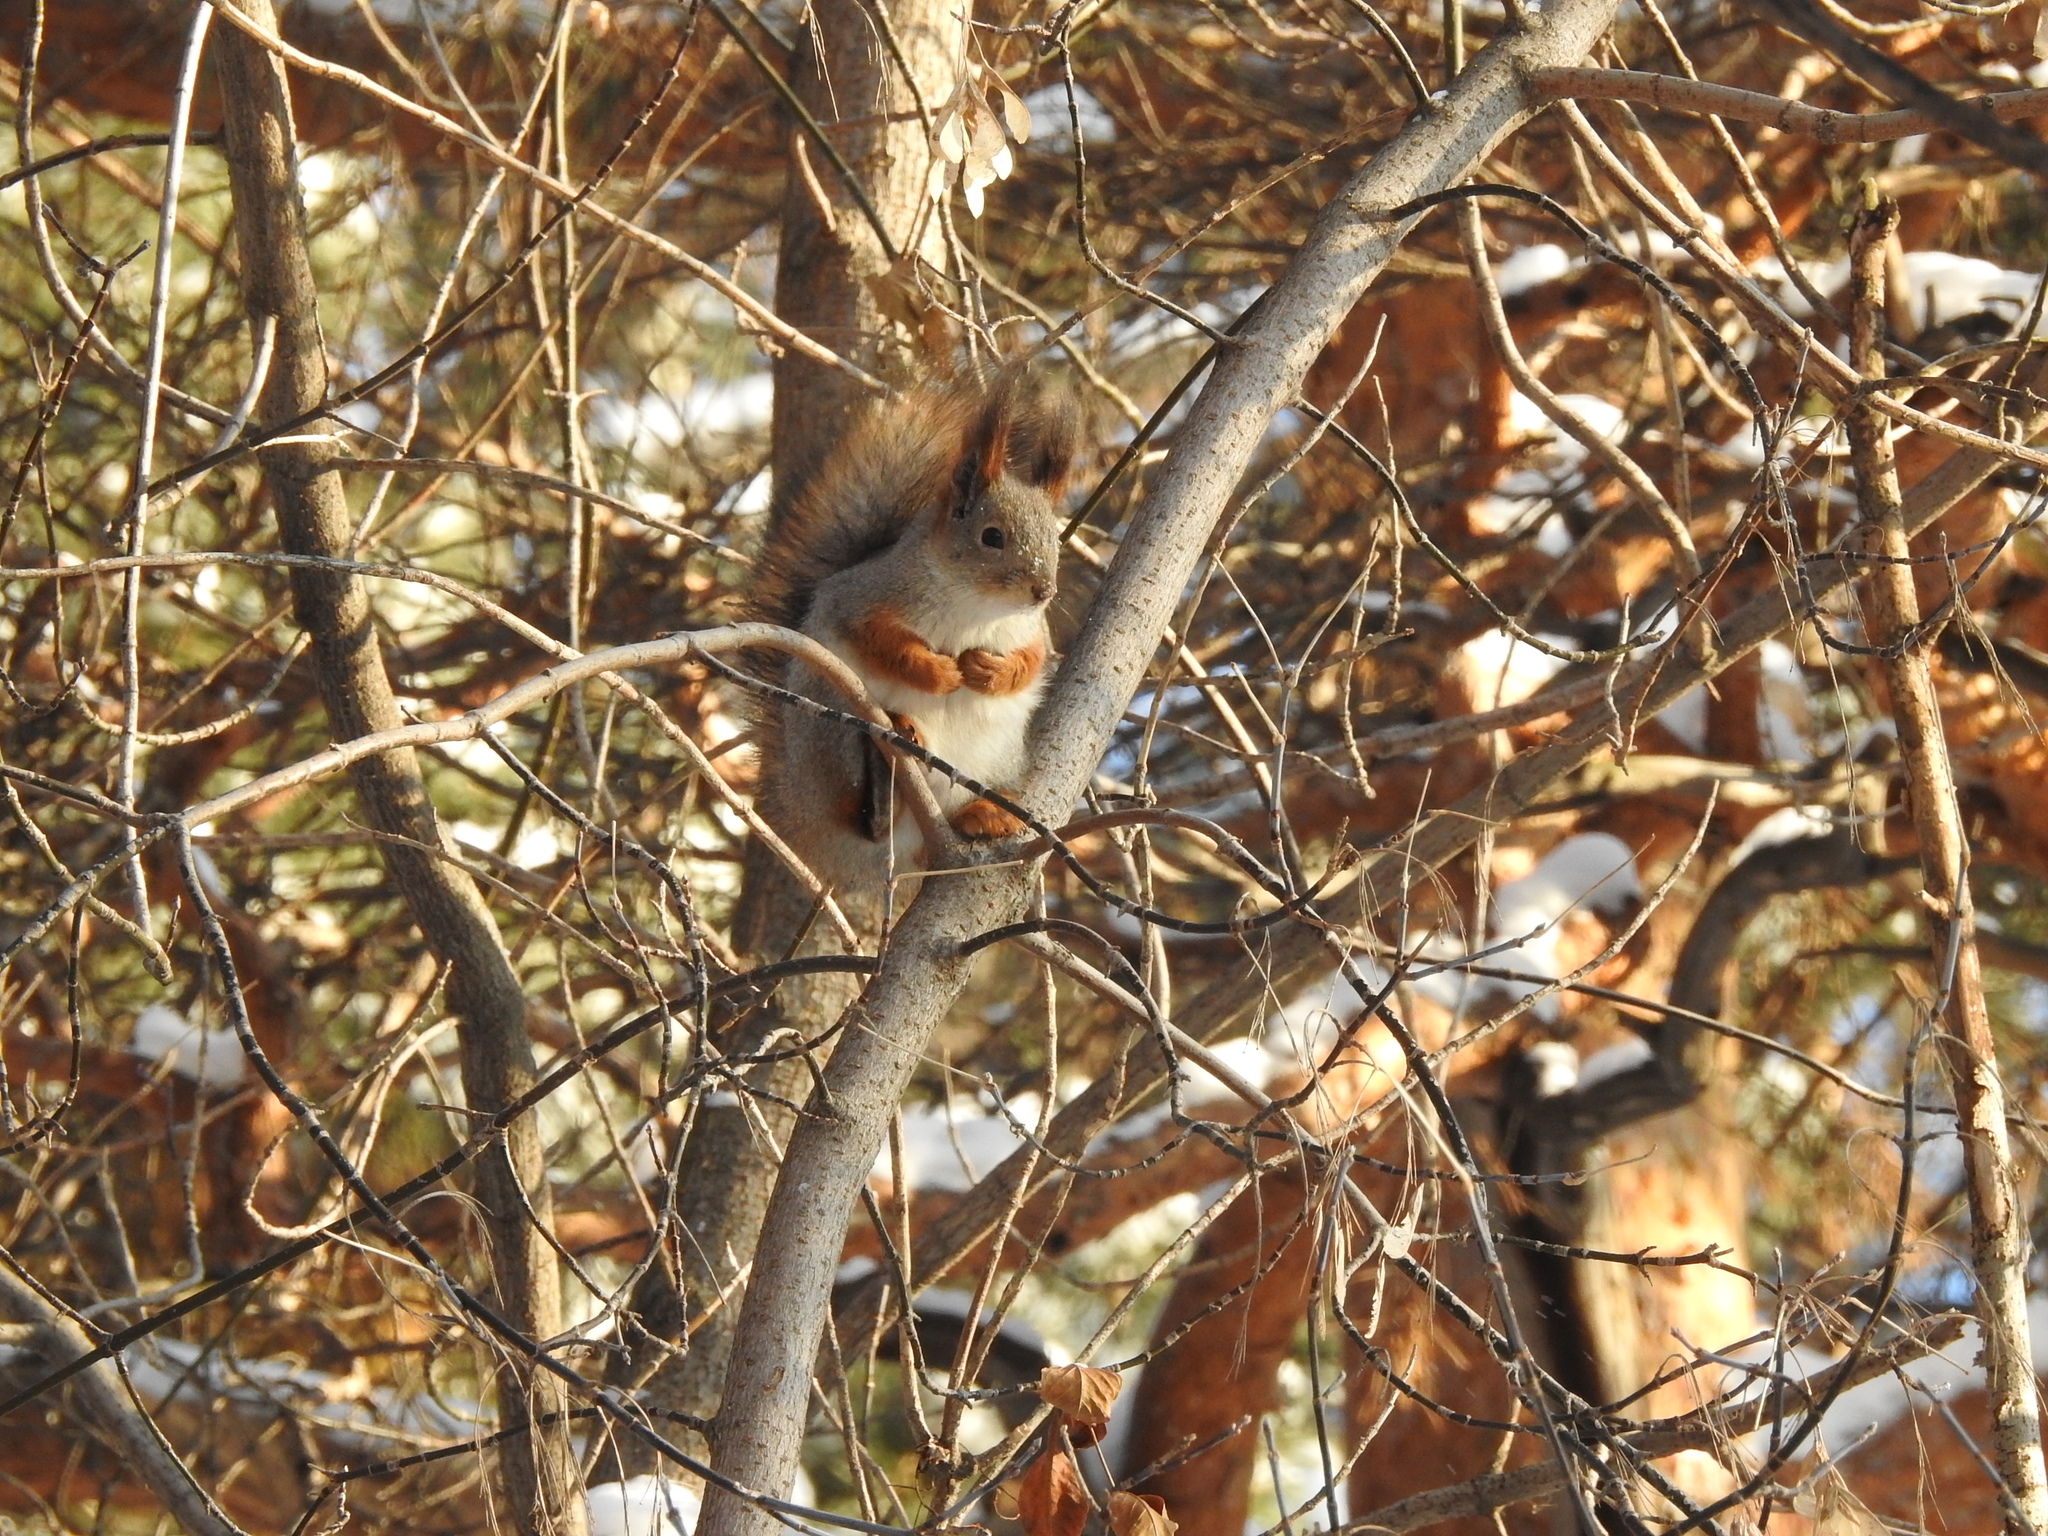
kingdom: Animalia
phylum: Chordata
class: Mammalia
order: Rodentia
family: Sciuridae
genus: Sciurus
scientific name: Sciurus vulgaris
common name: Eurasian red squirrel
